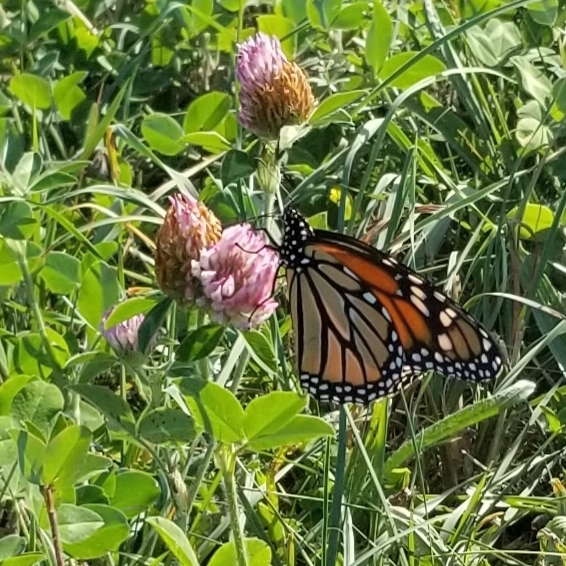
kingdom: Plantae
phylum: Tracheophyta
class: Magnoliopsida
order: Fabales
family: Fabaceae
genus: Trifolium
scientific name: Trifolium pratense
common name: Red clover
